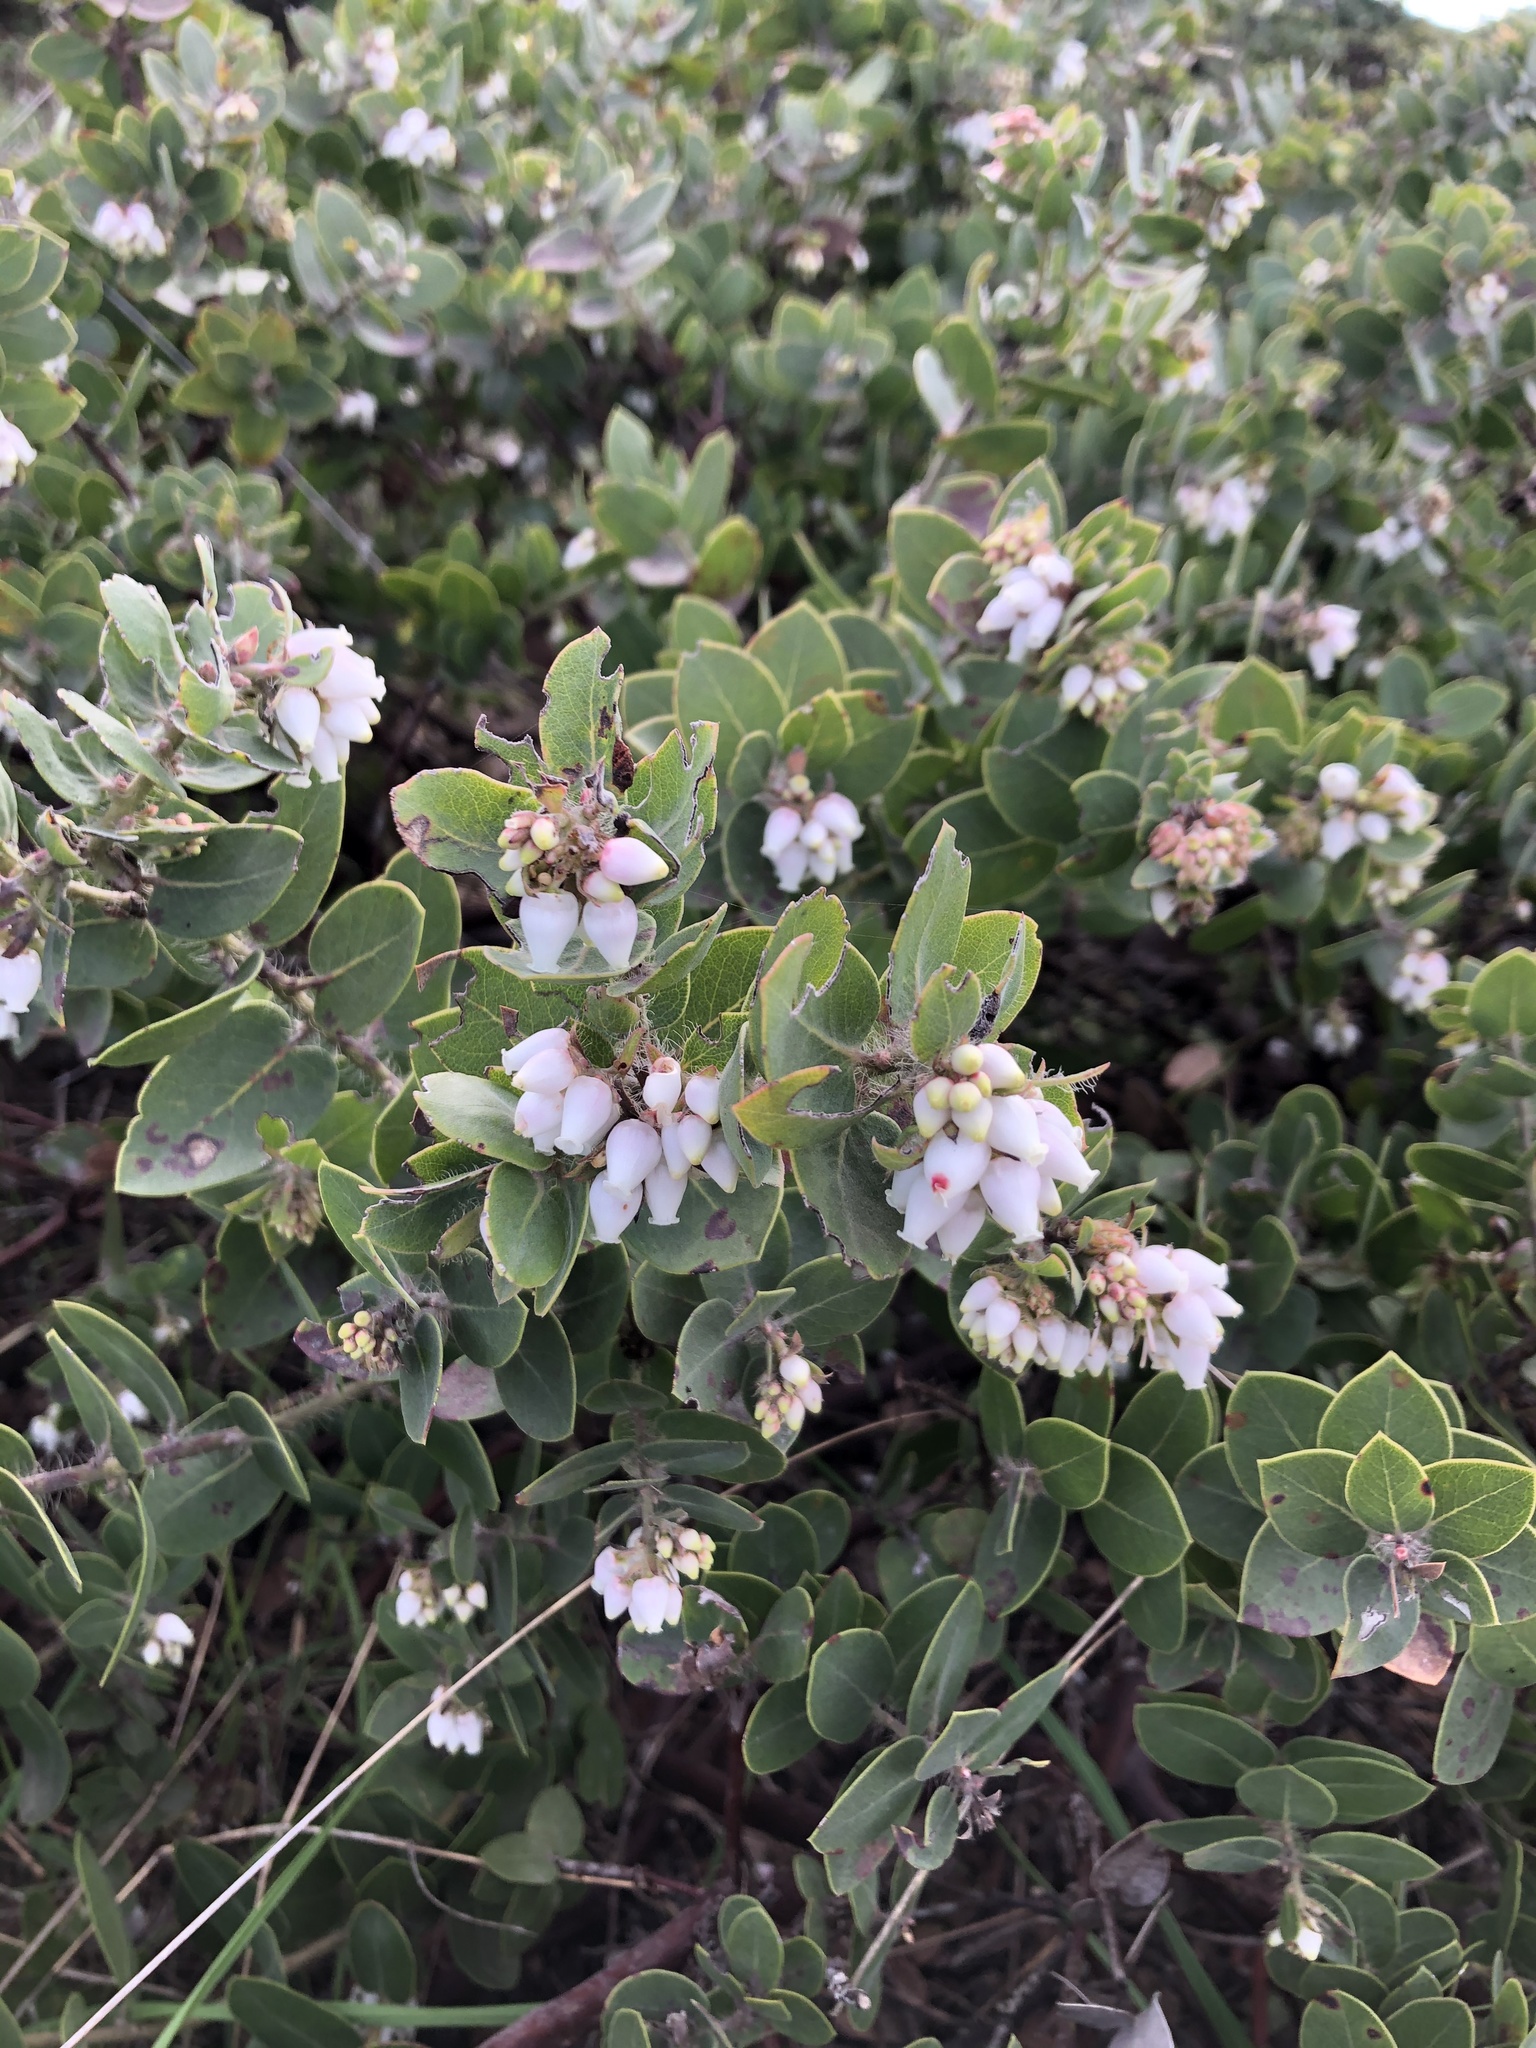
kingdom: Plantae
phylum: Tracheophyta
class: Magnoliopsida
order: Ericales
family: Ericaceae
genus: Arctostaphylos
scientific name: Arctostaphylos purissima
